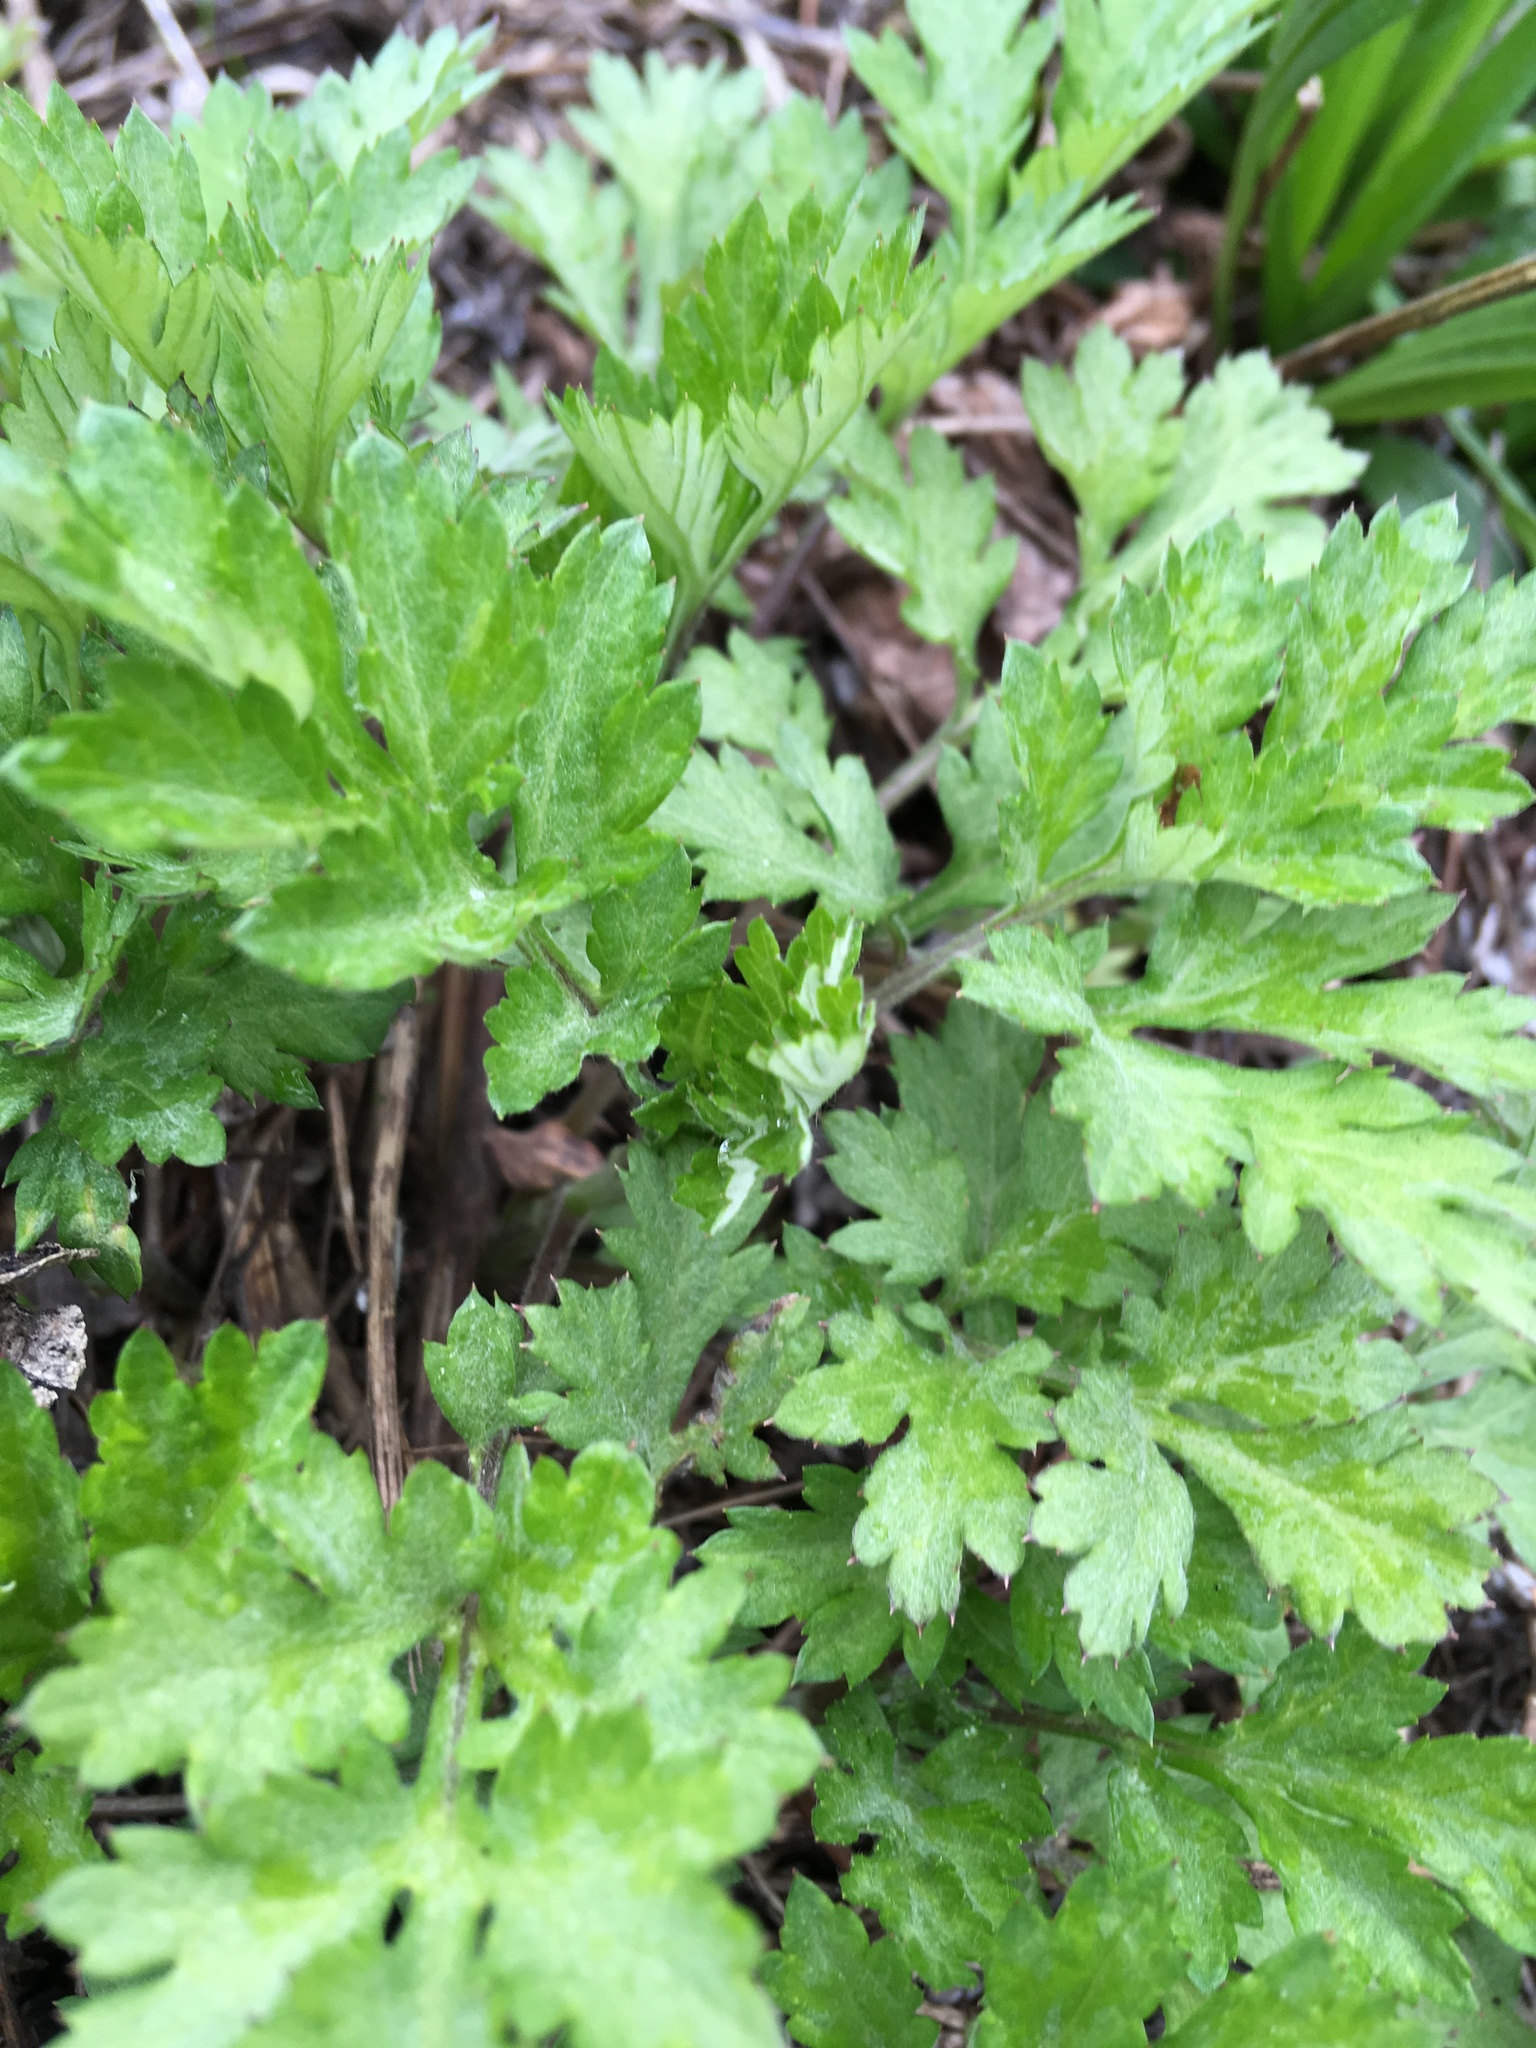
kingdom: Plantae
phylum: Tracheophyta
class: Magnoliopsida
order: Asterales
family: Asteraceae
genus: Artemisia
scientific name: Artemisia vulgaris
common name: Mugwort
